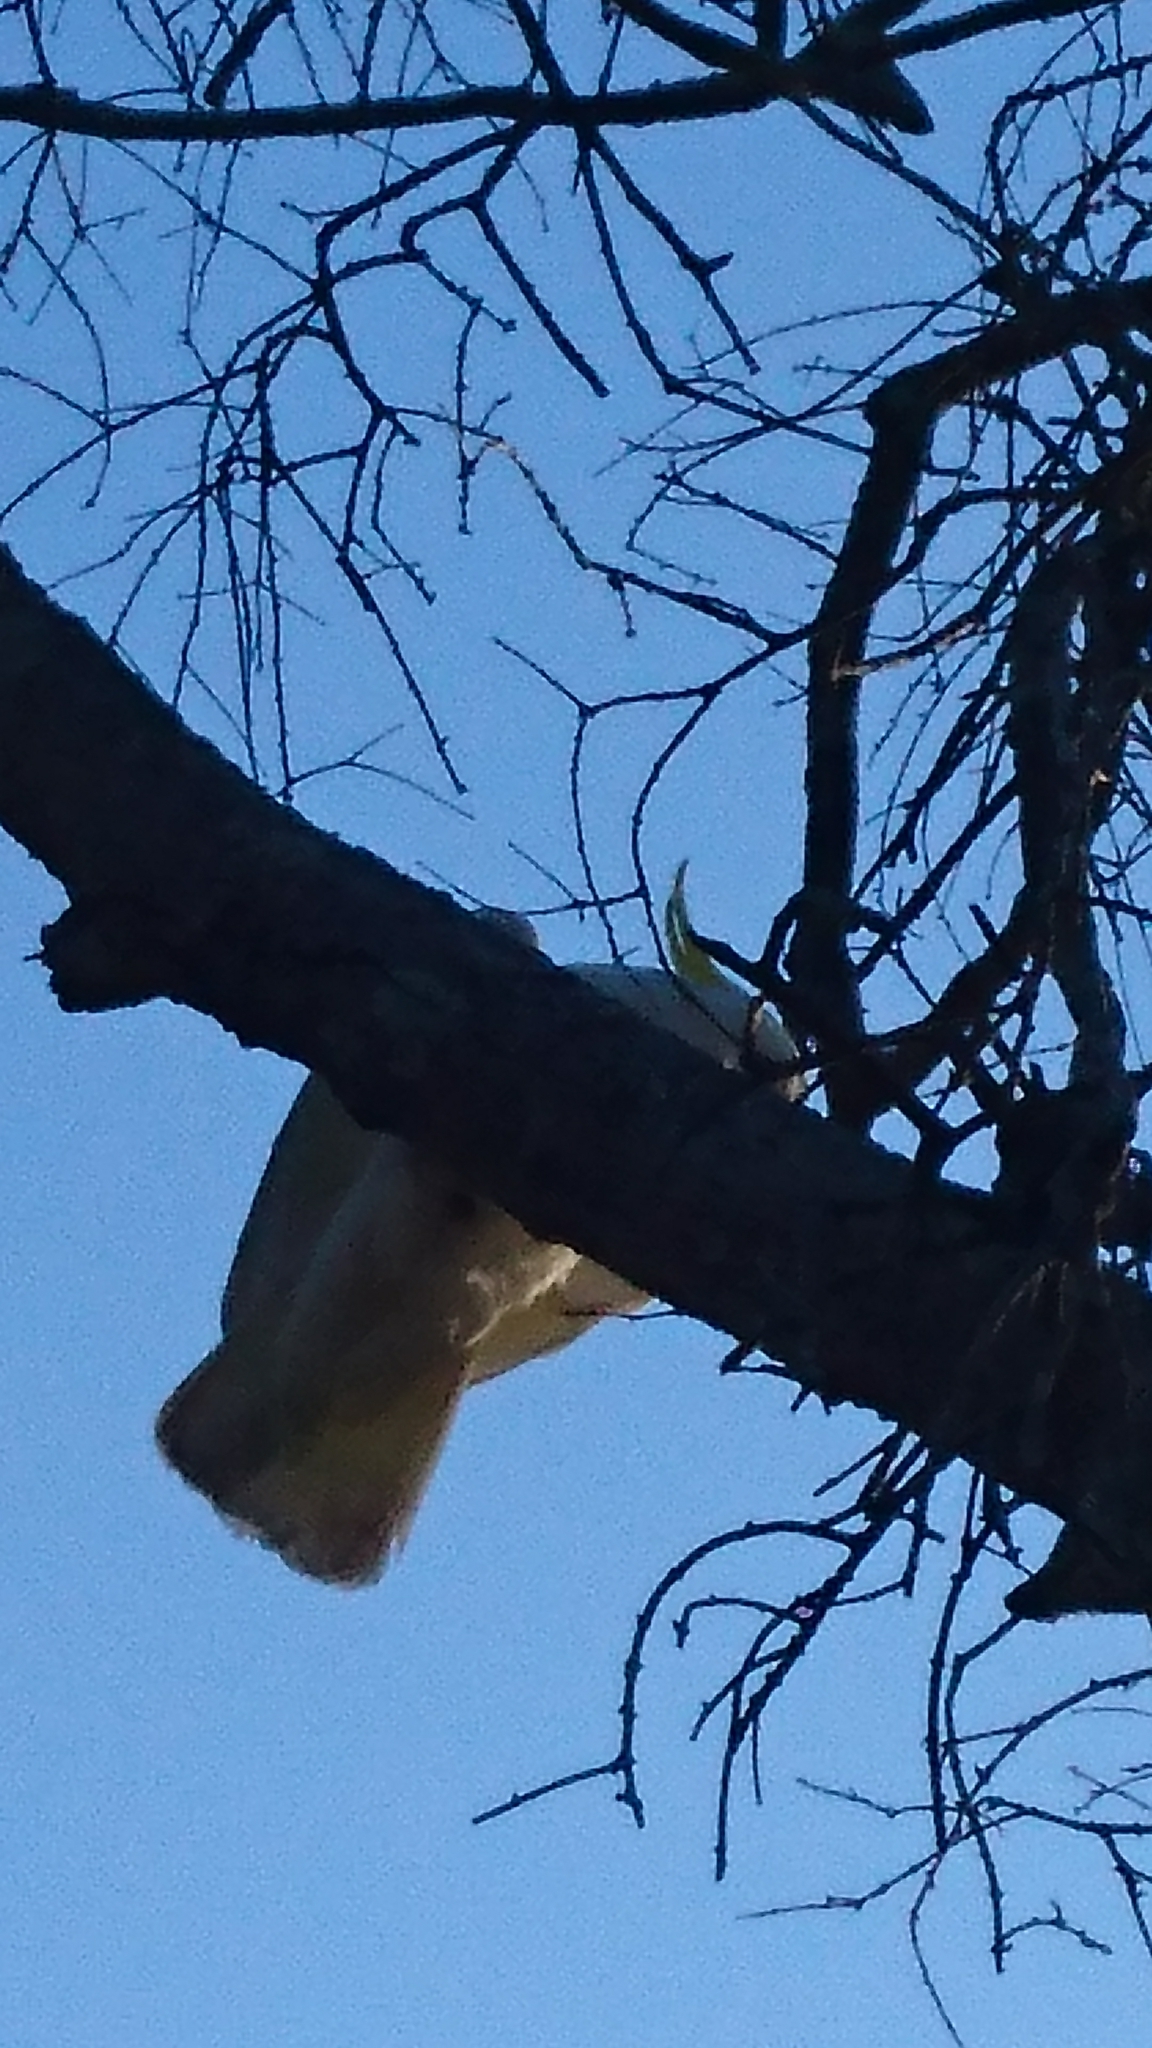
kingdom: Animalia
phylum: Chordata
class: Aves
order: Psittaciformes
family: Psittacidae
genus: Cacatua
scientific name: Cacatua galerita
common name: Sulphur-crested cockatoo
